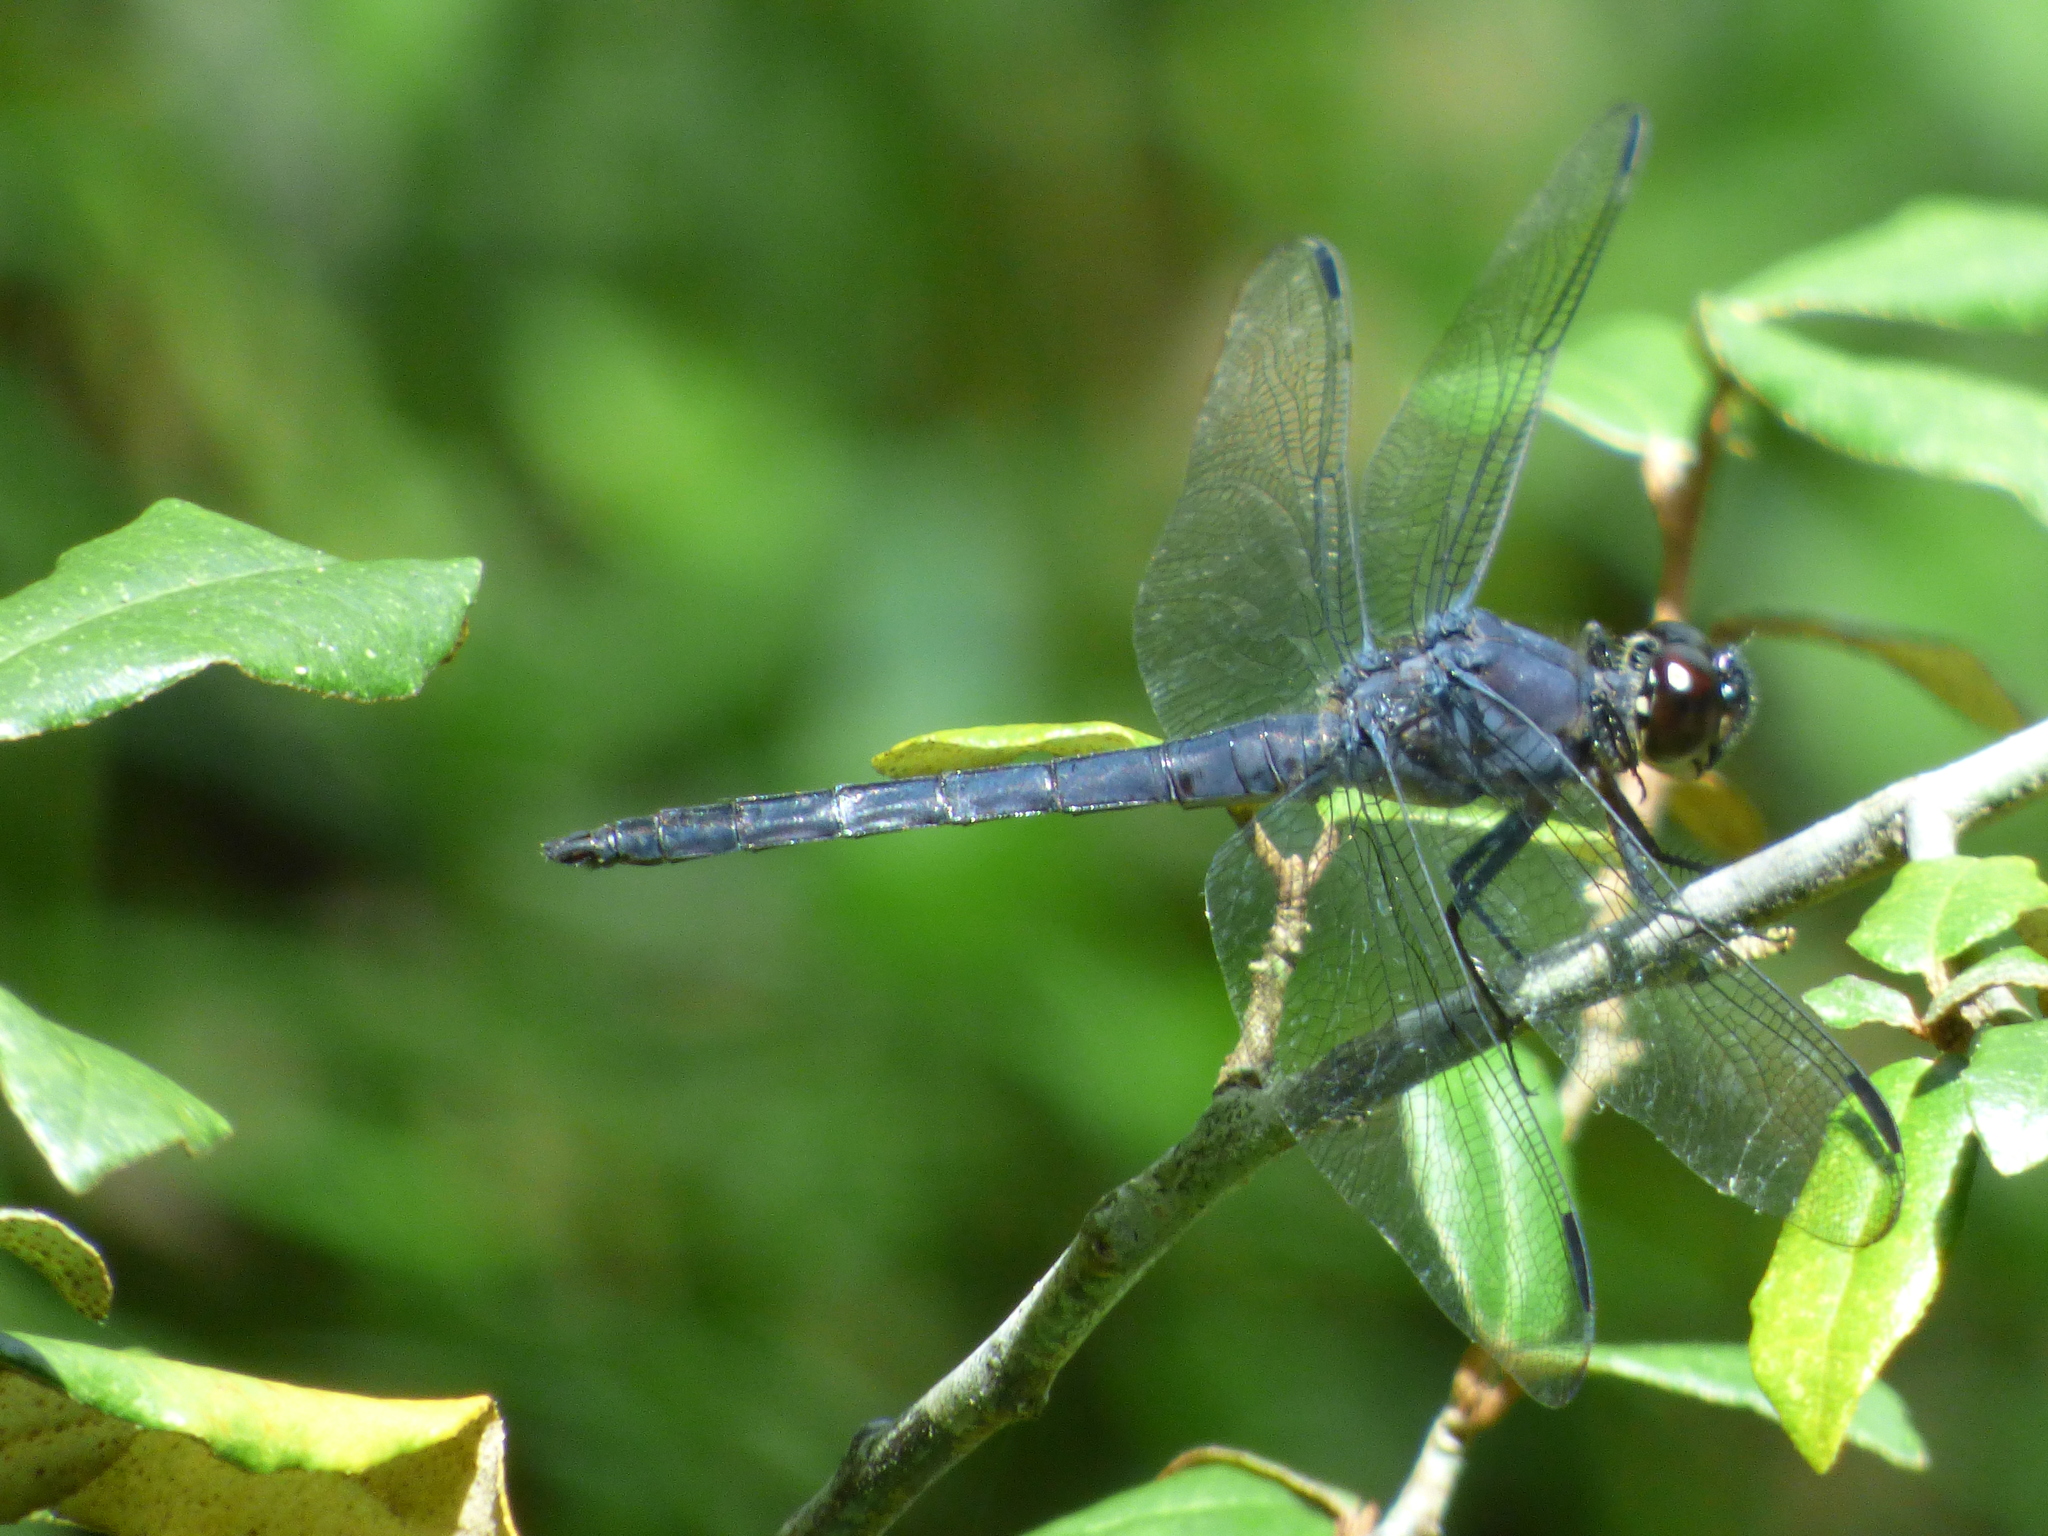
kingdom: Animalia
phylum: Arthropoda
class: Insecta
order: Odonata
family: Libellulidae
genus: Libellula
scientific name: Libellula incesta
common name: Slaty skimmer
